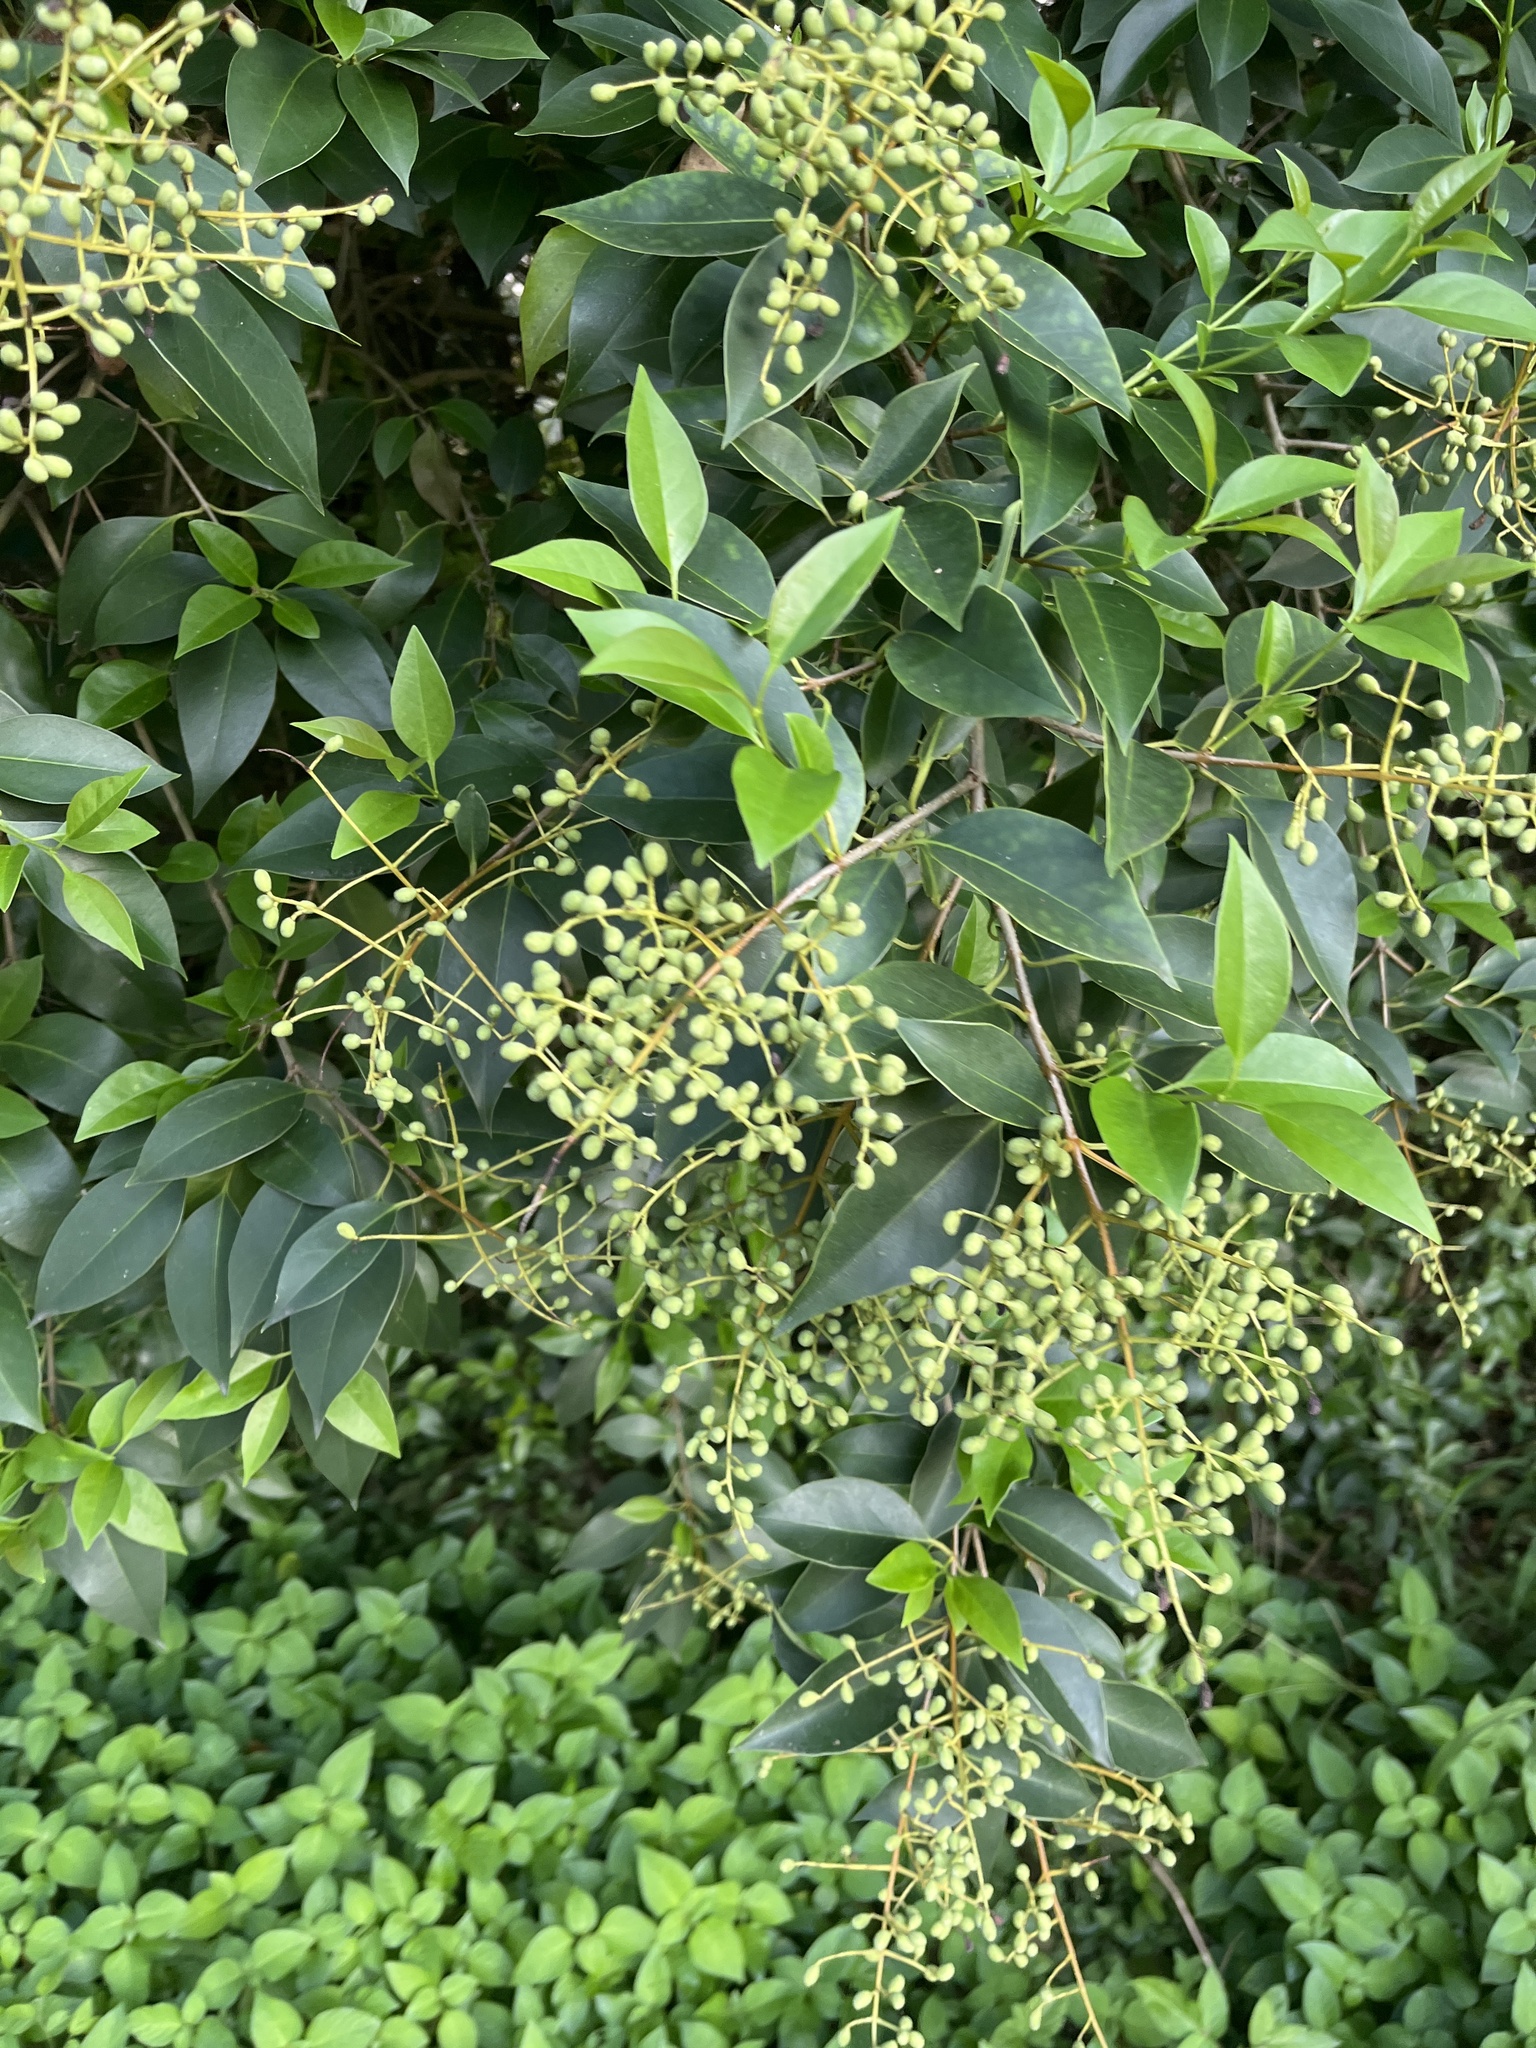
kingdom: Plantae
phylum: Tracheophyta
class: Magnoliopsida
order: Lamiales
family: Oleaceae
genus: Ligustrum
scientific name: Ligustrum lucidum
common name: Glossy privet
